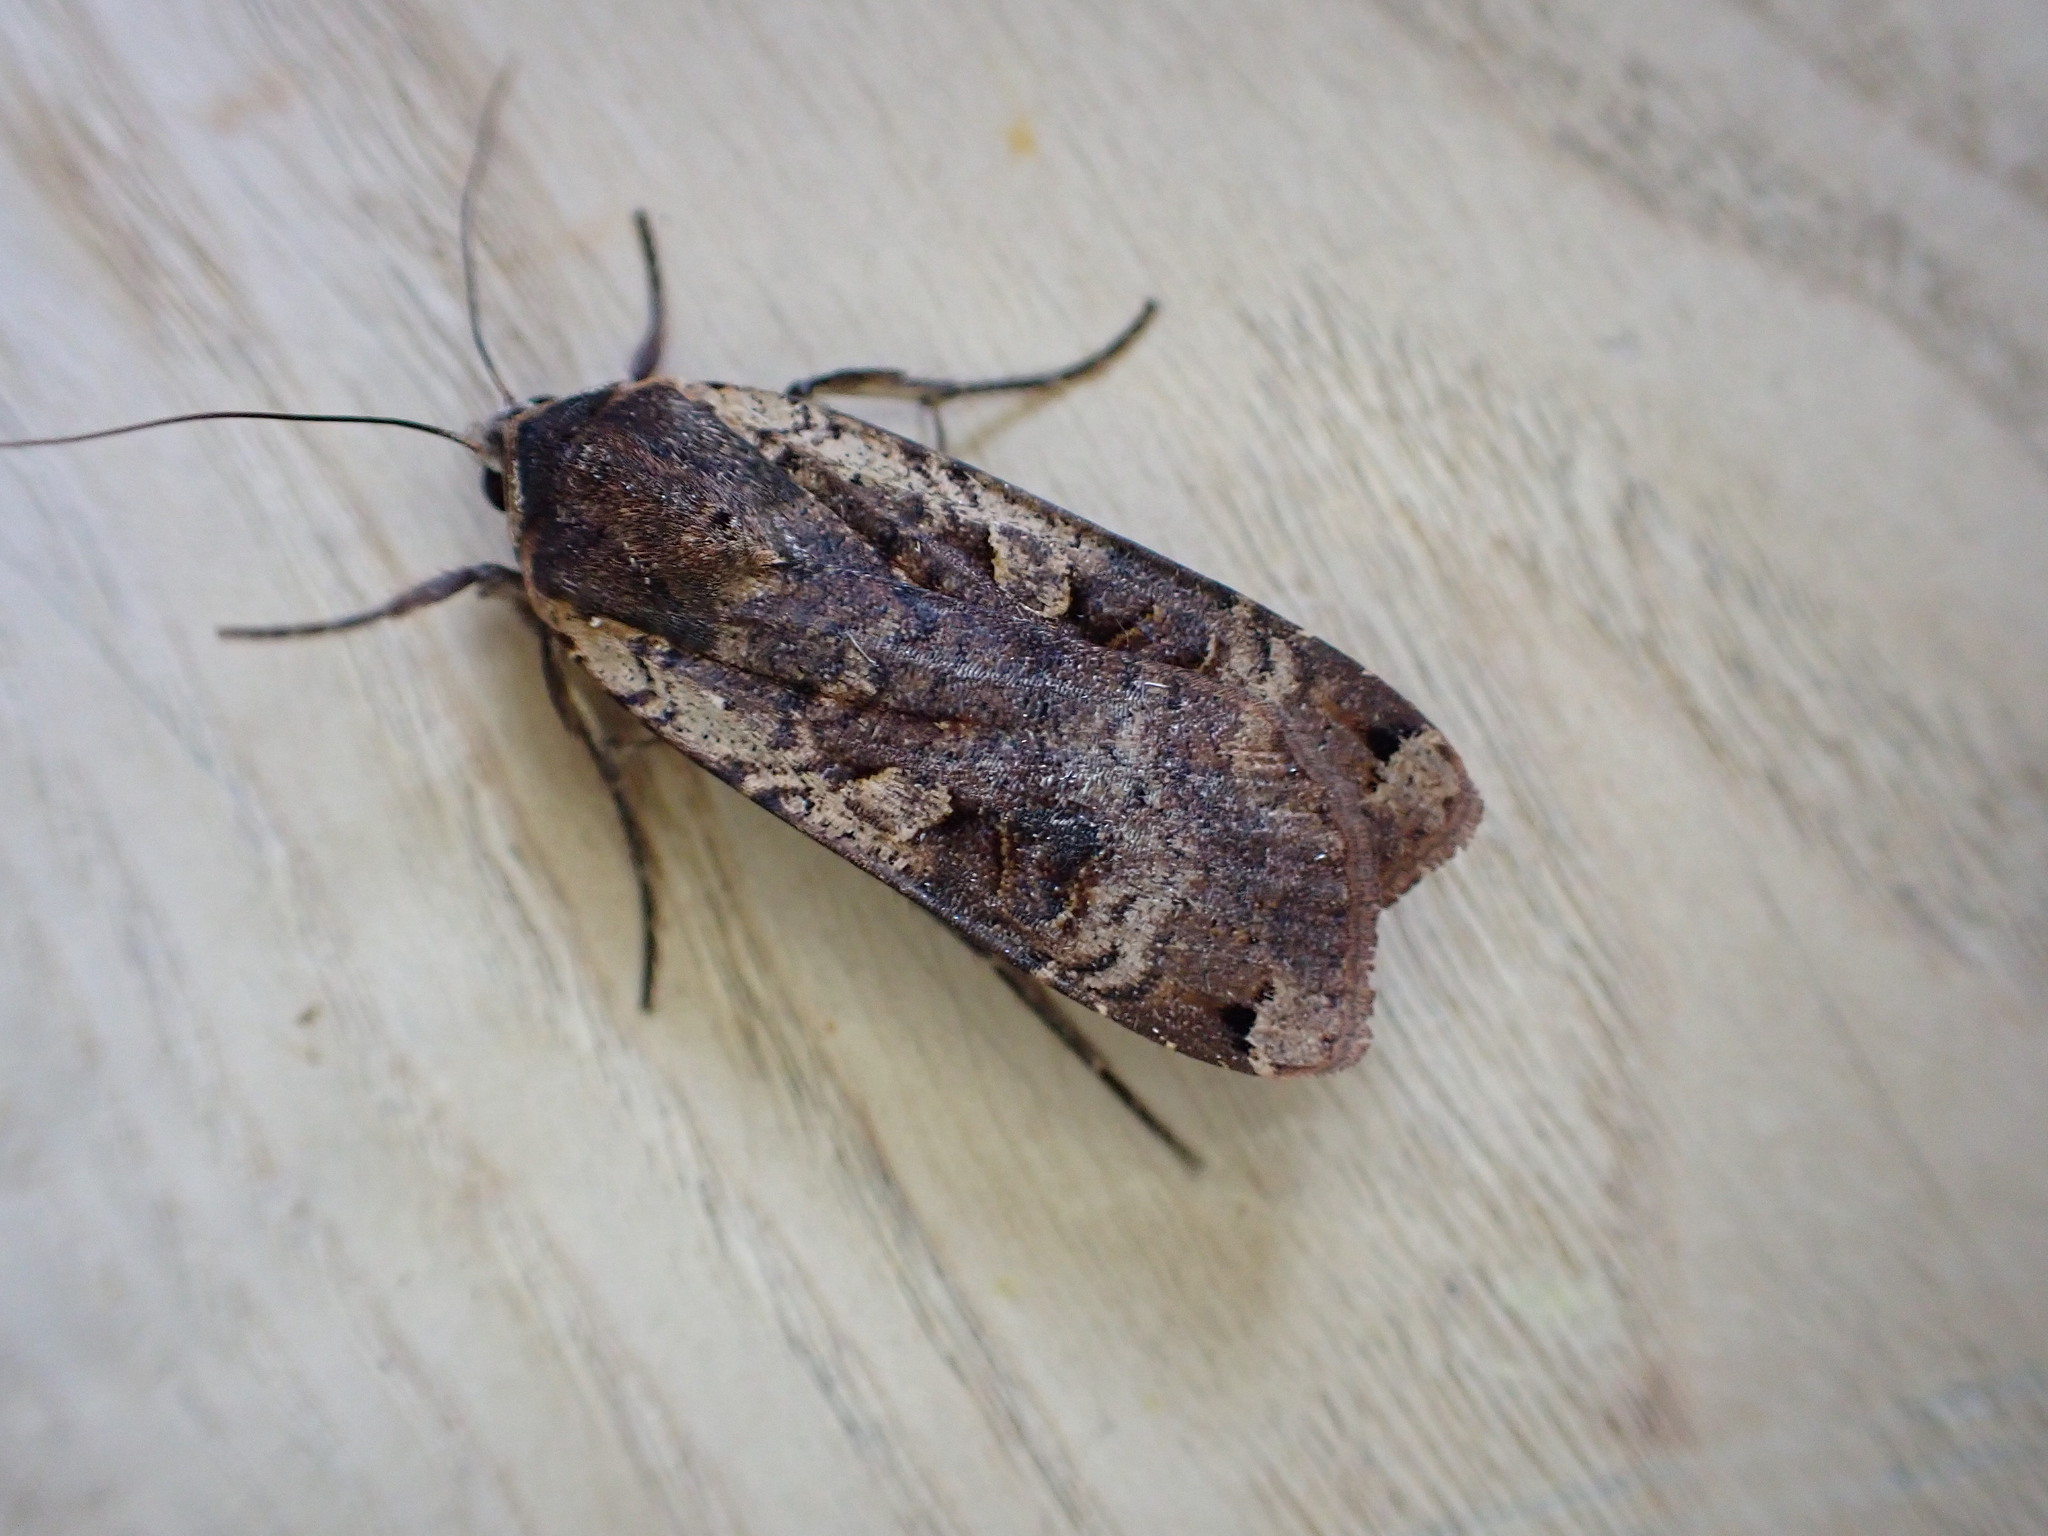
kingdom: Animalia
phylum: Arthropoda
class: Insecta
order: Lepidoptera
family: Noctuidae
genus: Noctua
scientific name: Noctua pronuba
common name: Large yellow underwing
